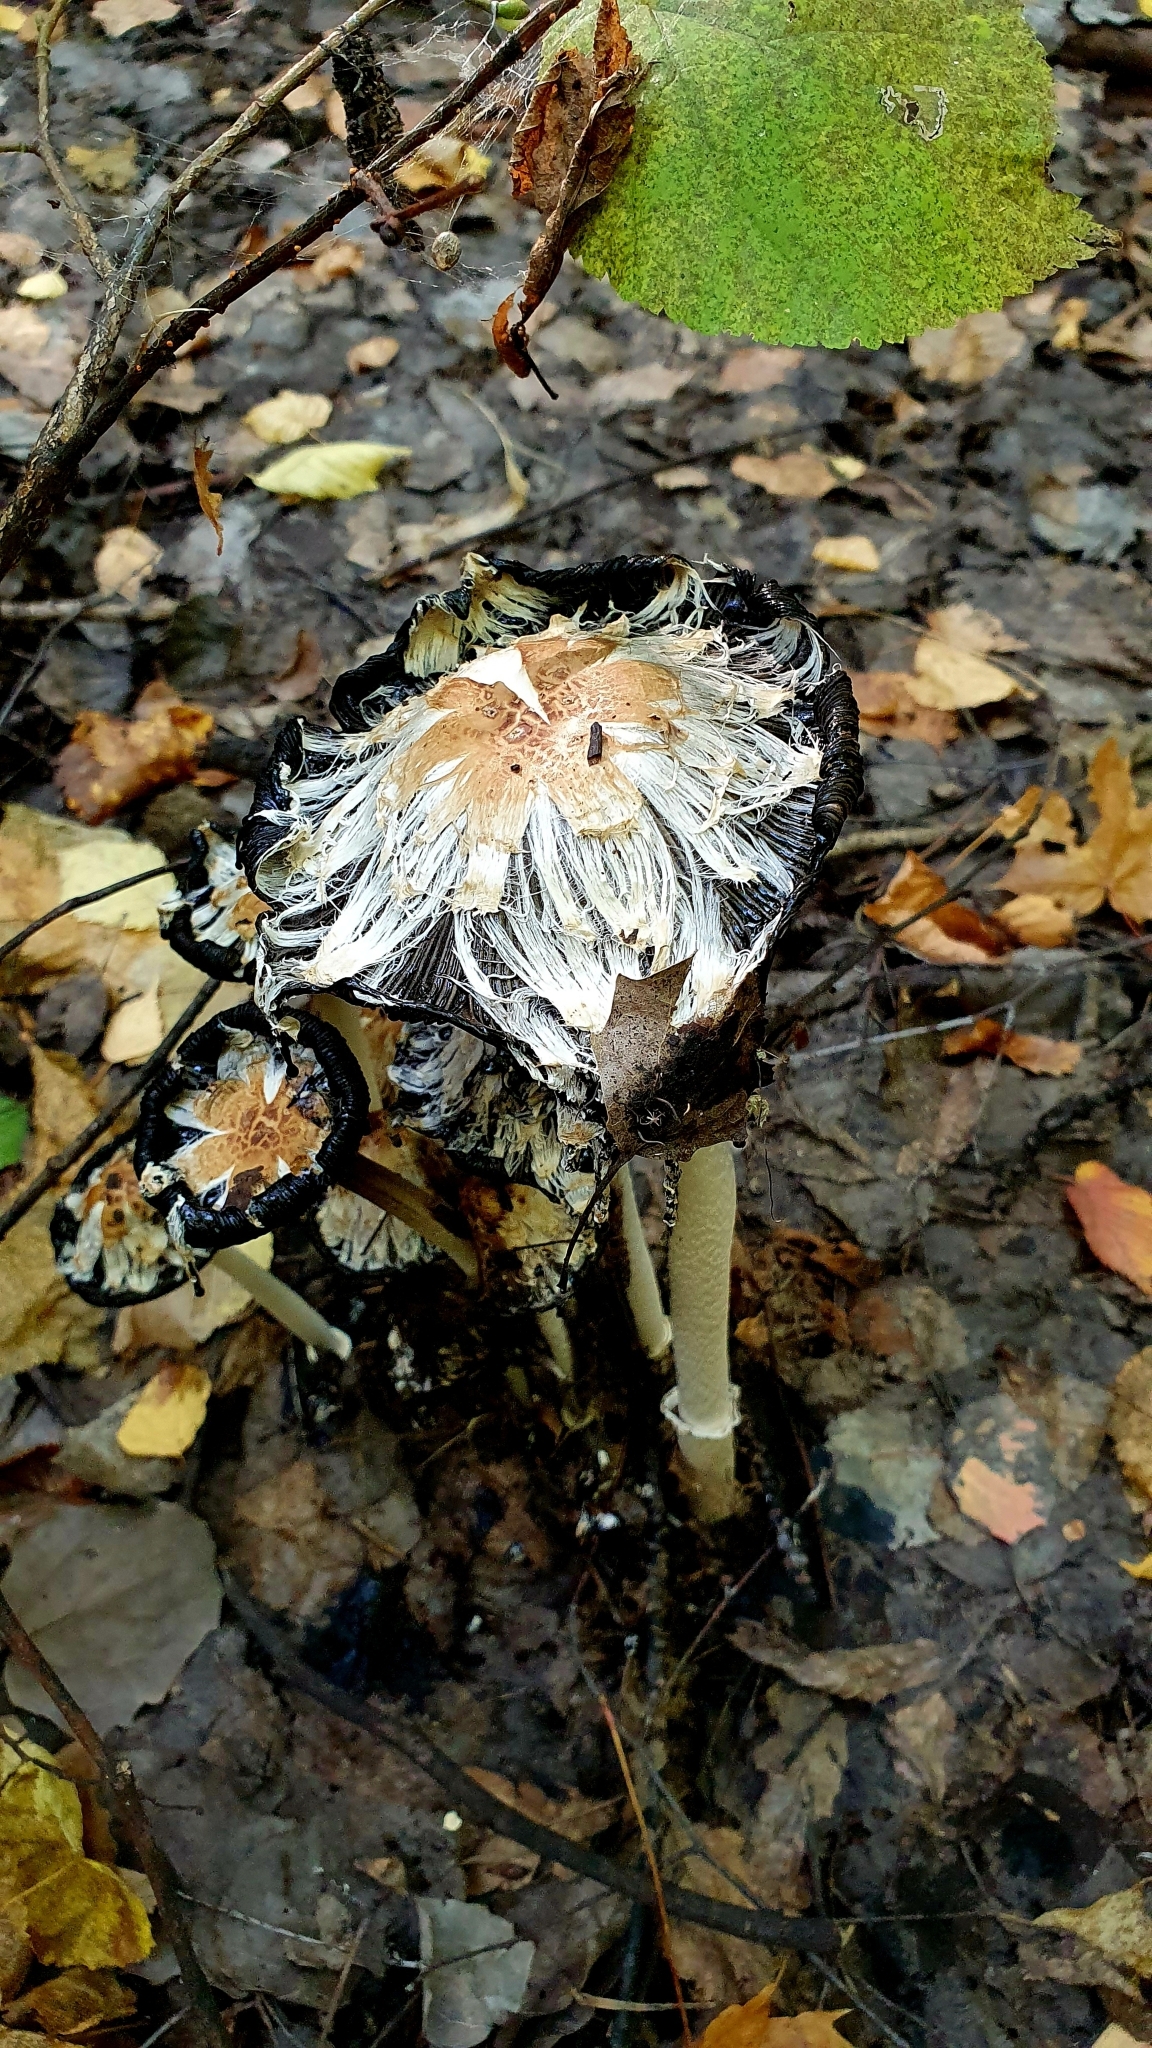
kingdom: Fungi
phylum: Basidiomycota
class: Agaricomycetes
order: Agaricales
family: Agaricaceae
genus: Coprinus
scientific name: Coprinus comatus
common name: Lawyer's wig
